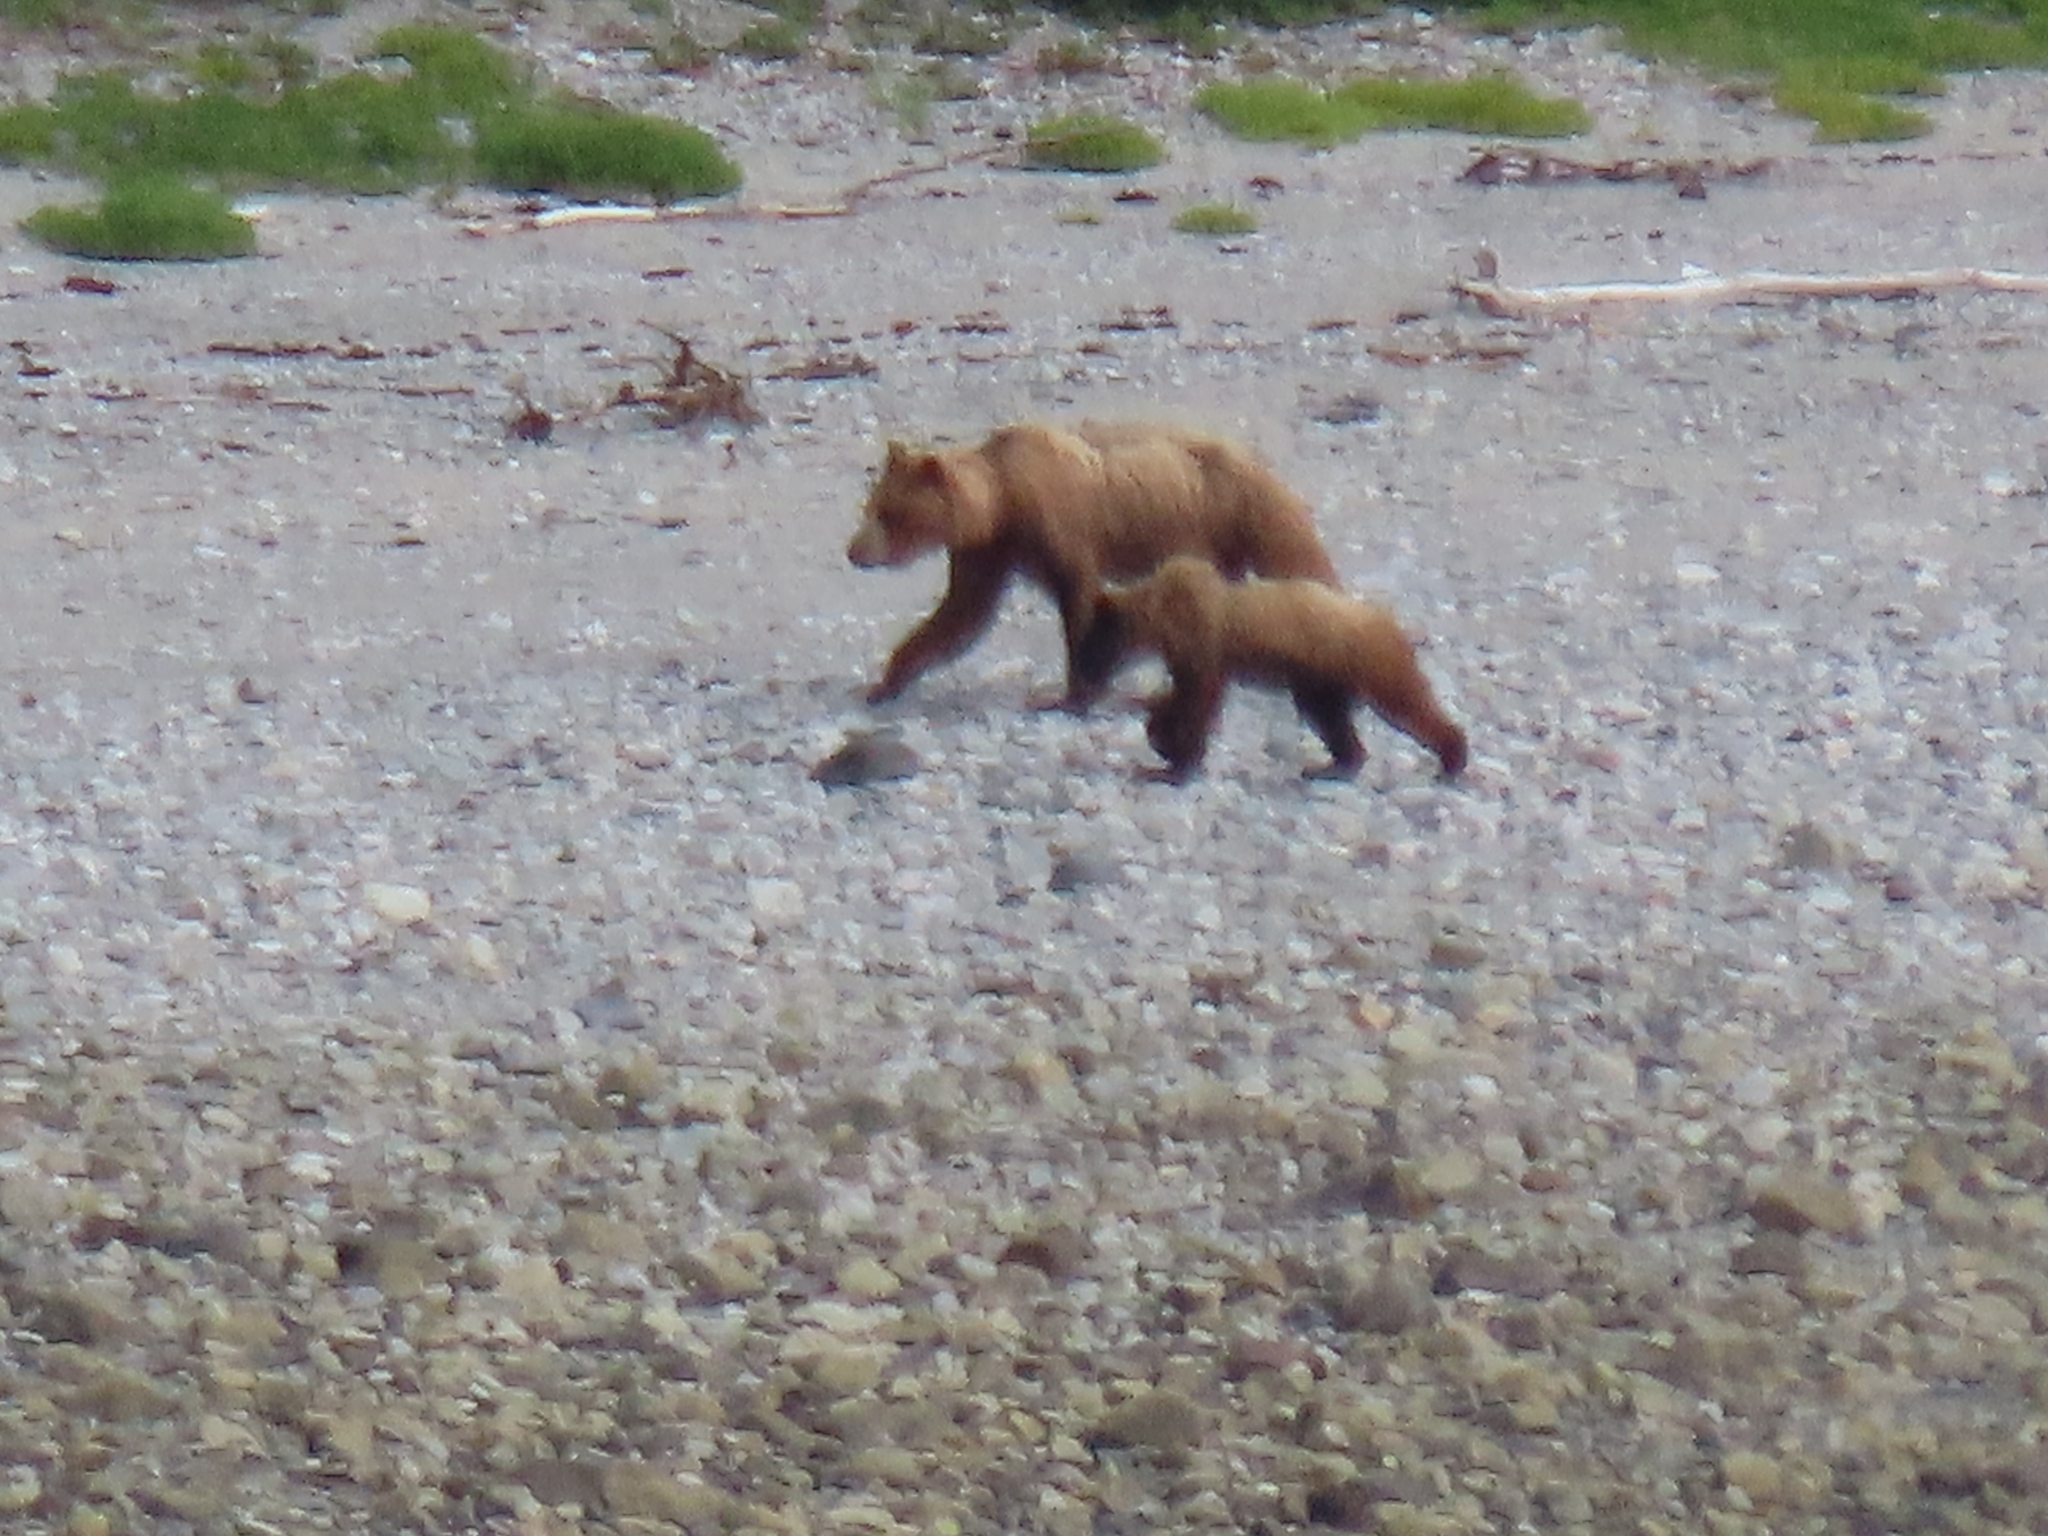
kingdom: Animalia
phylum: Chordata
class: Mammalia
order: Carnivora
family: Ursidae
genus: Ursus
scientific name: Ursus arctos
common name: Brown bear
